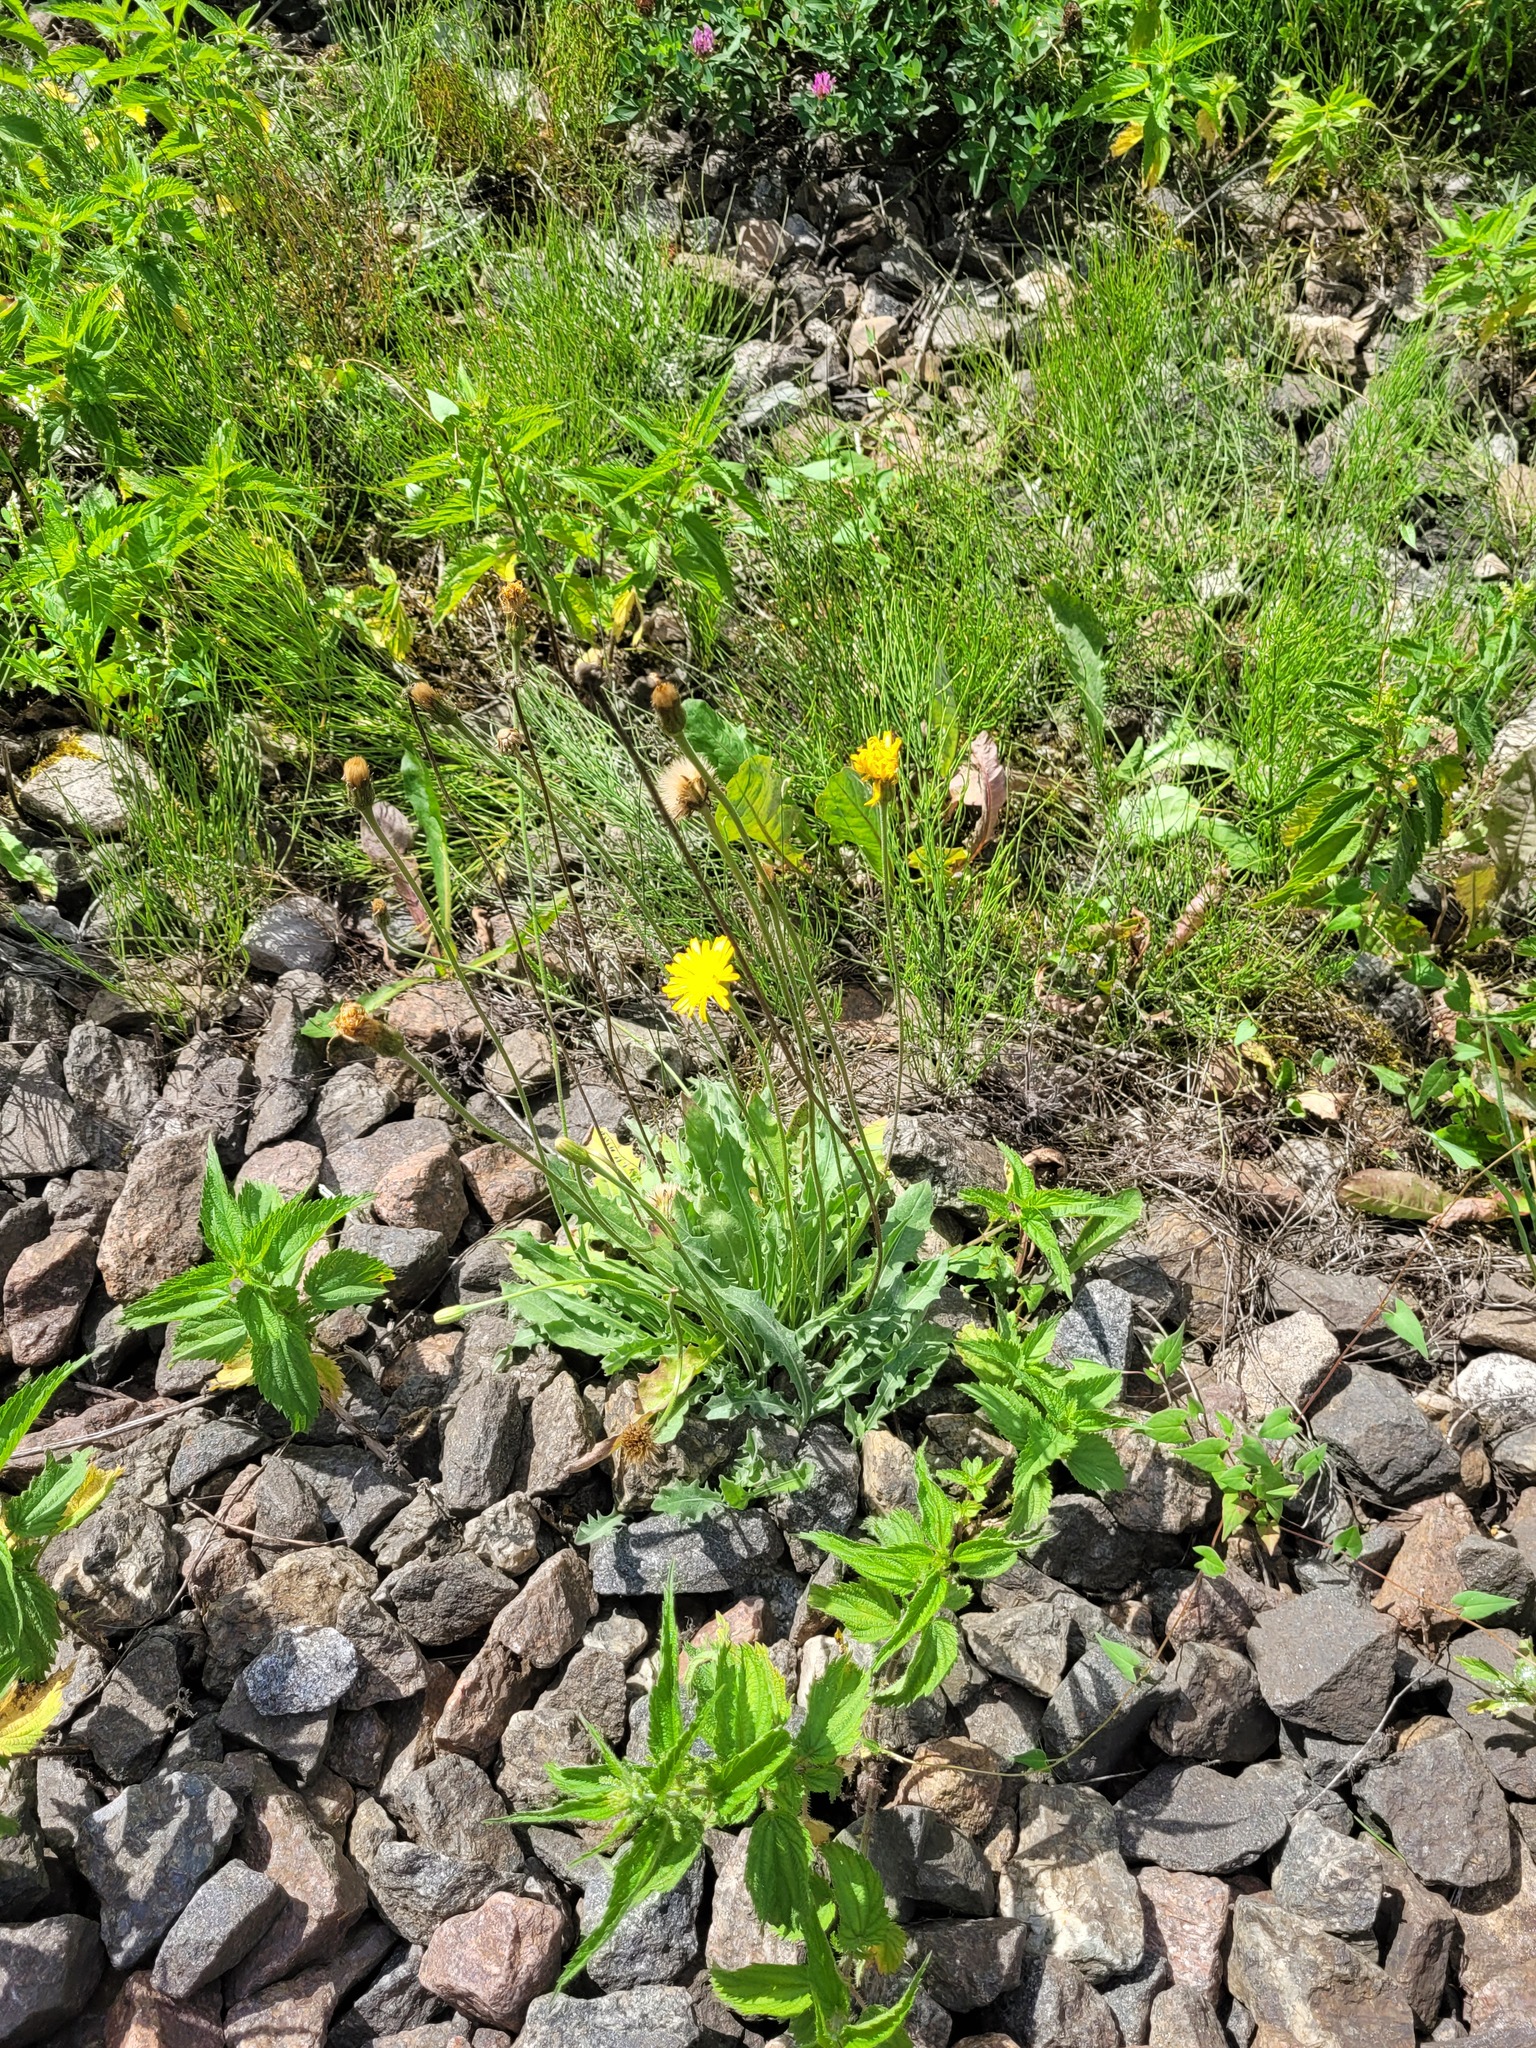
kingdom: Plantae
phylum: Tracheophyta
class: Magnoliopsida
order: Asterales
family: Asteraceae
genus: Leontodon
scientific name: Leontodon hispidus
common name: Rough hawkbit
